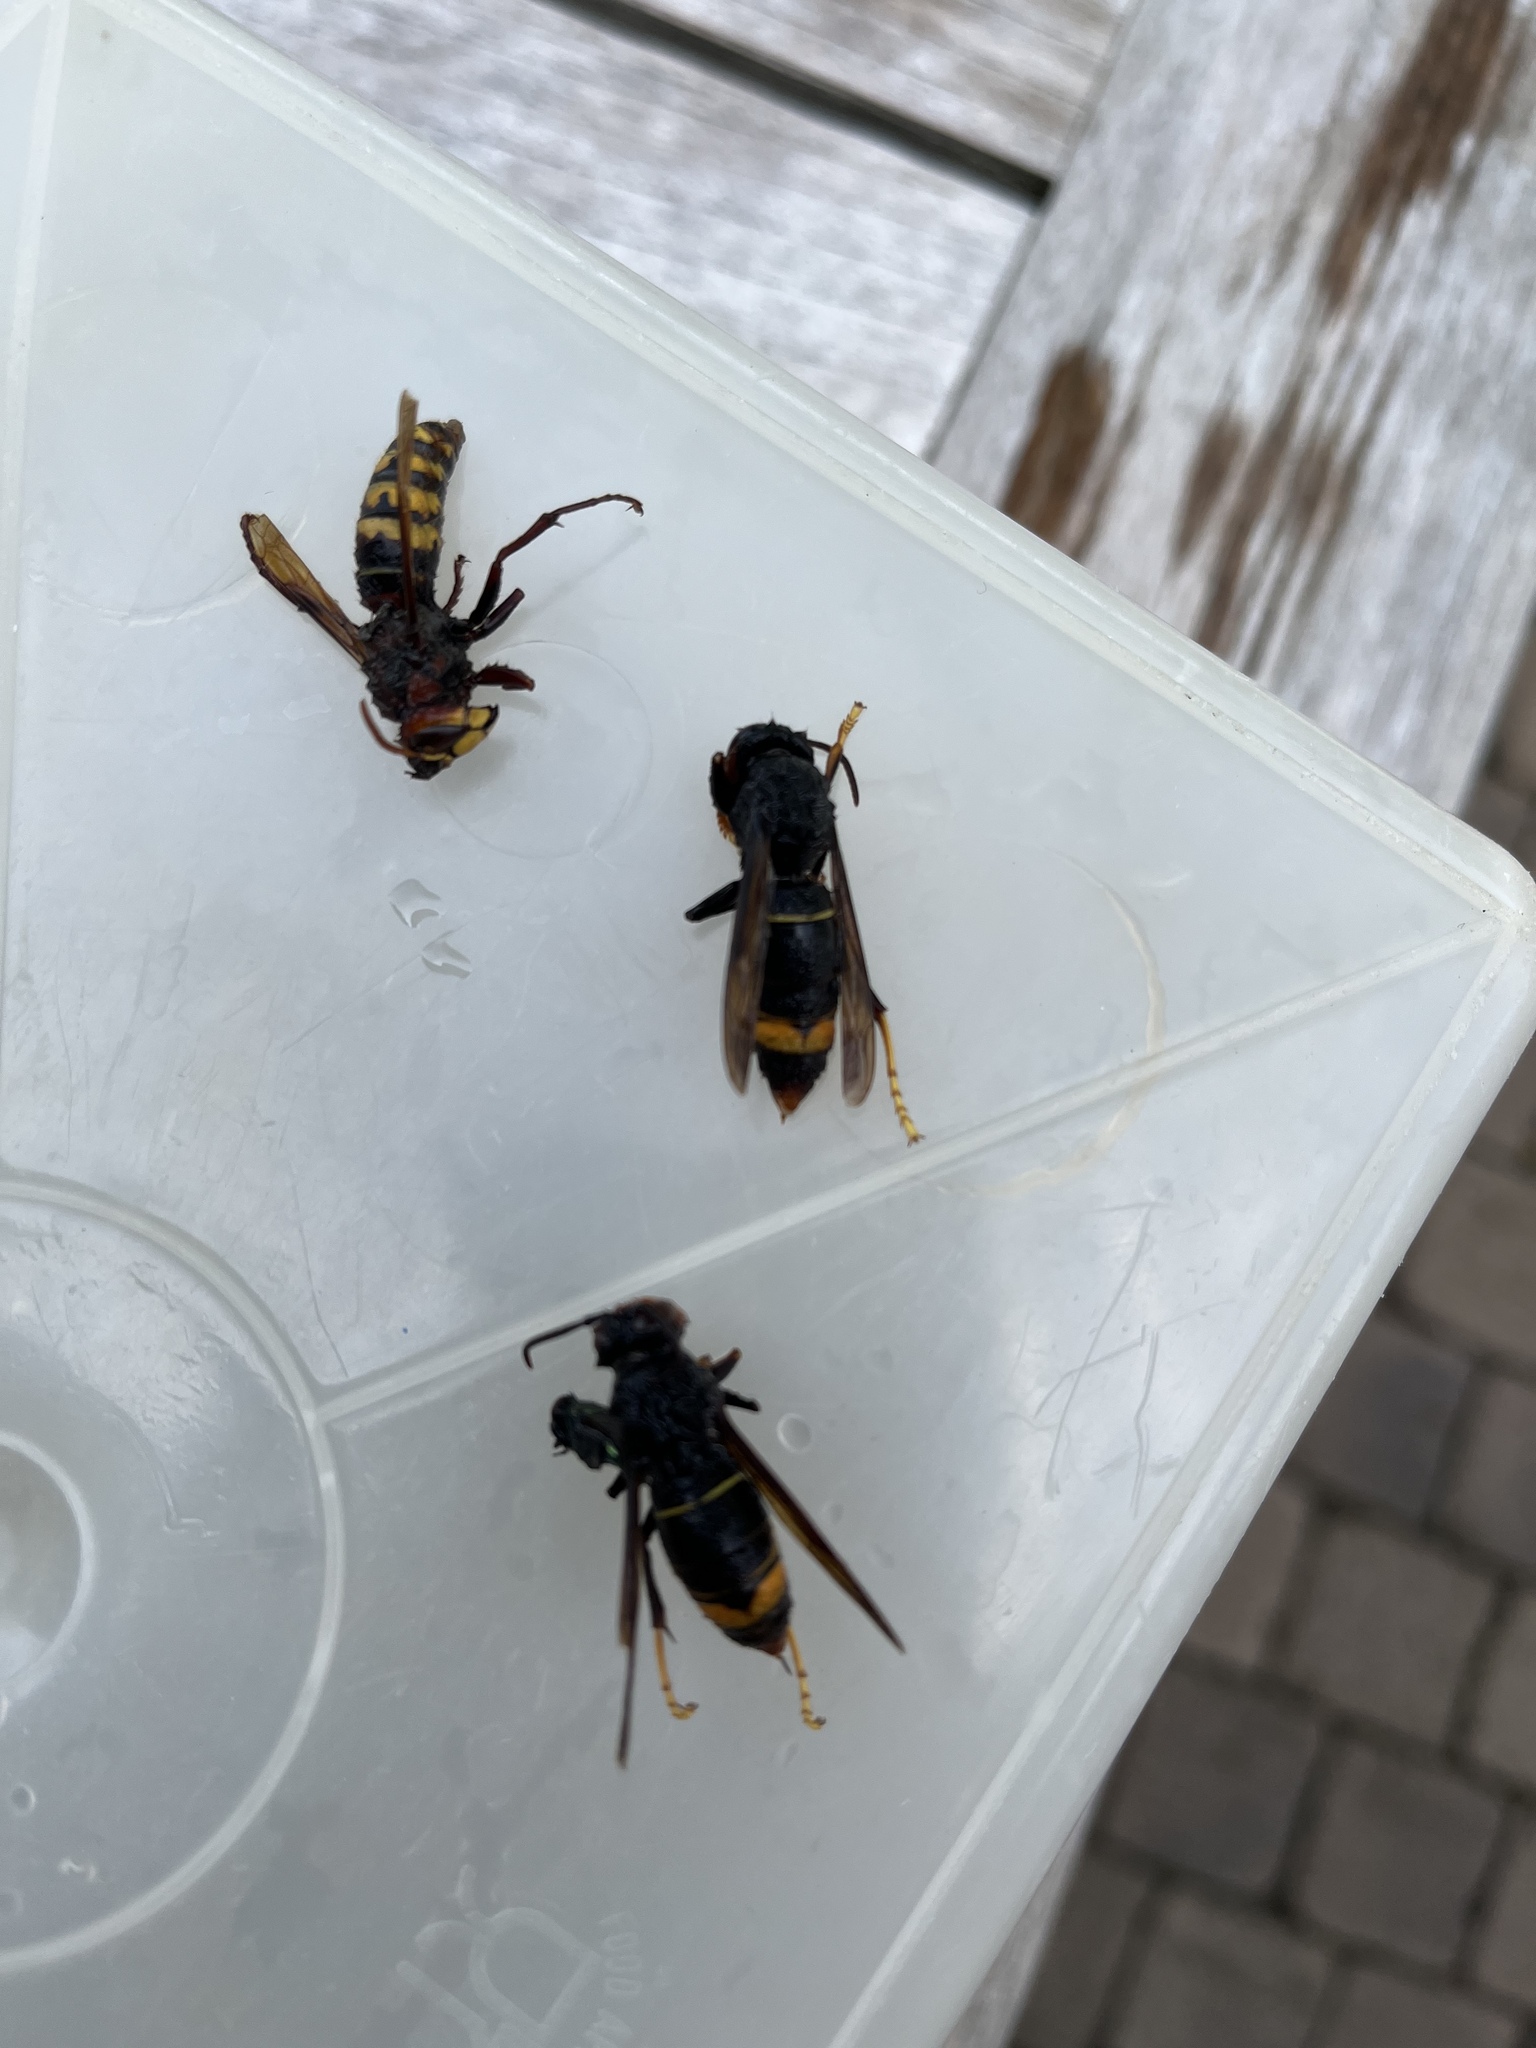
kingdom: Animalia
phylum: Arthropoda
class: Insecta
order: Hymenoptera
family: Vespidae
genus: Vespa
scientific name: Vespa velutina
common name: Asian hornet
